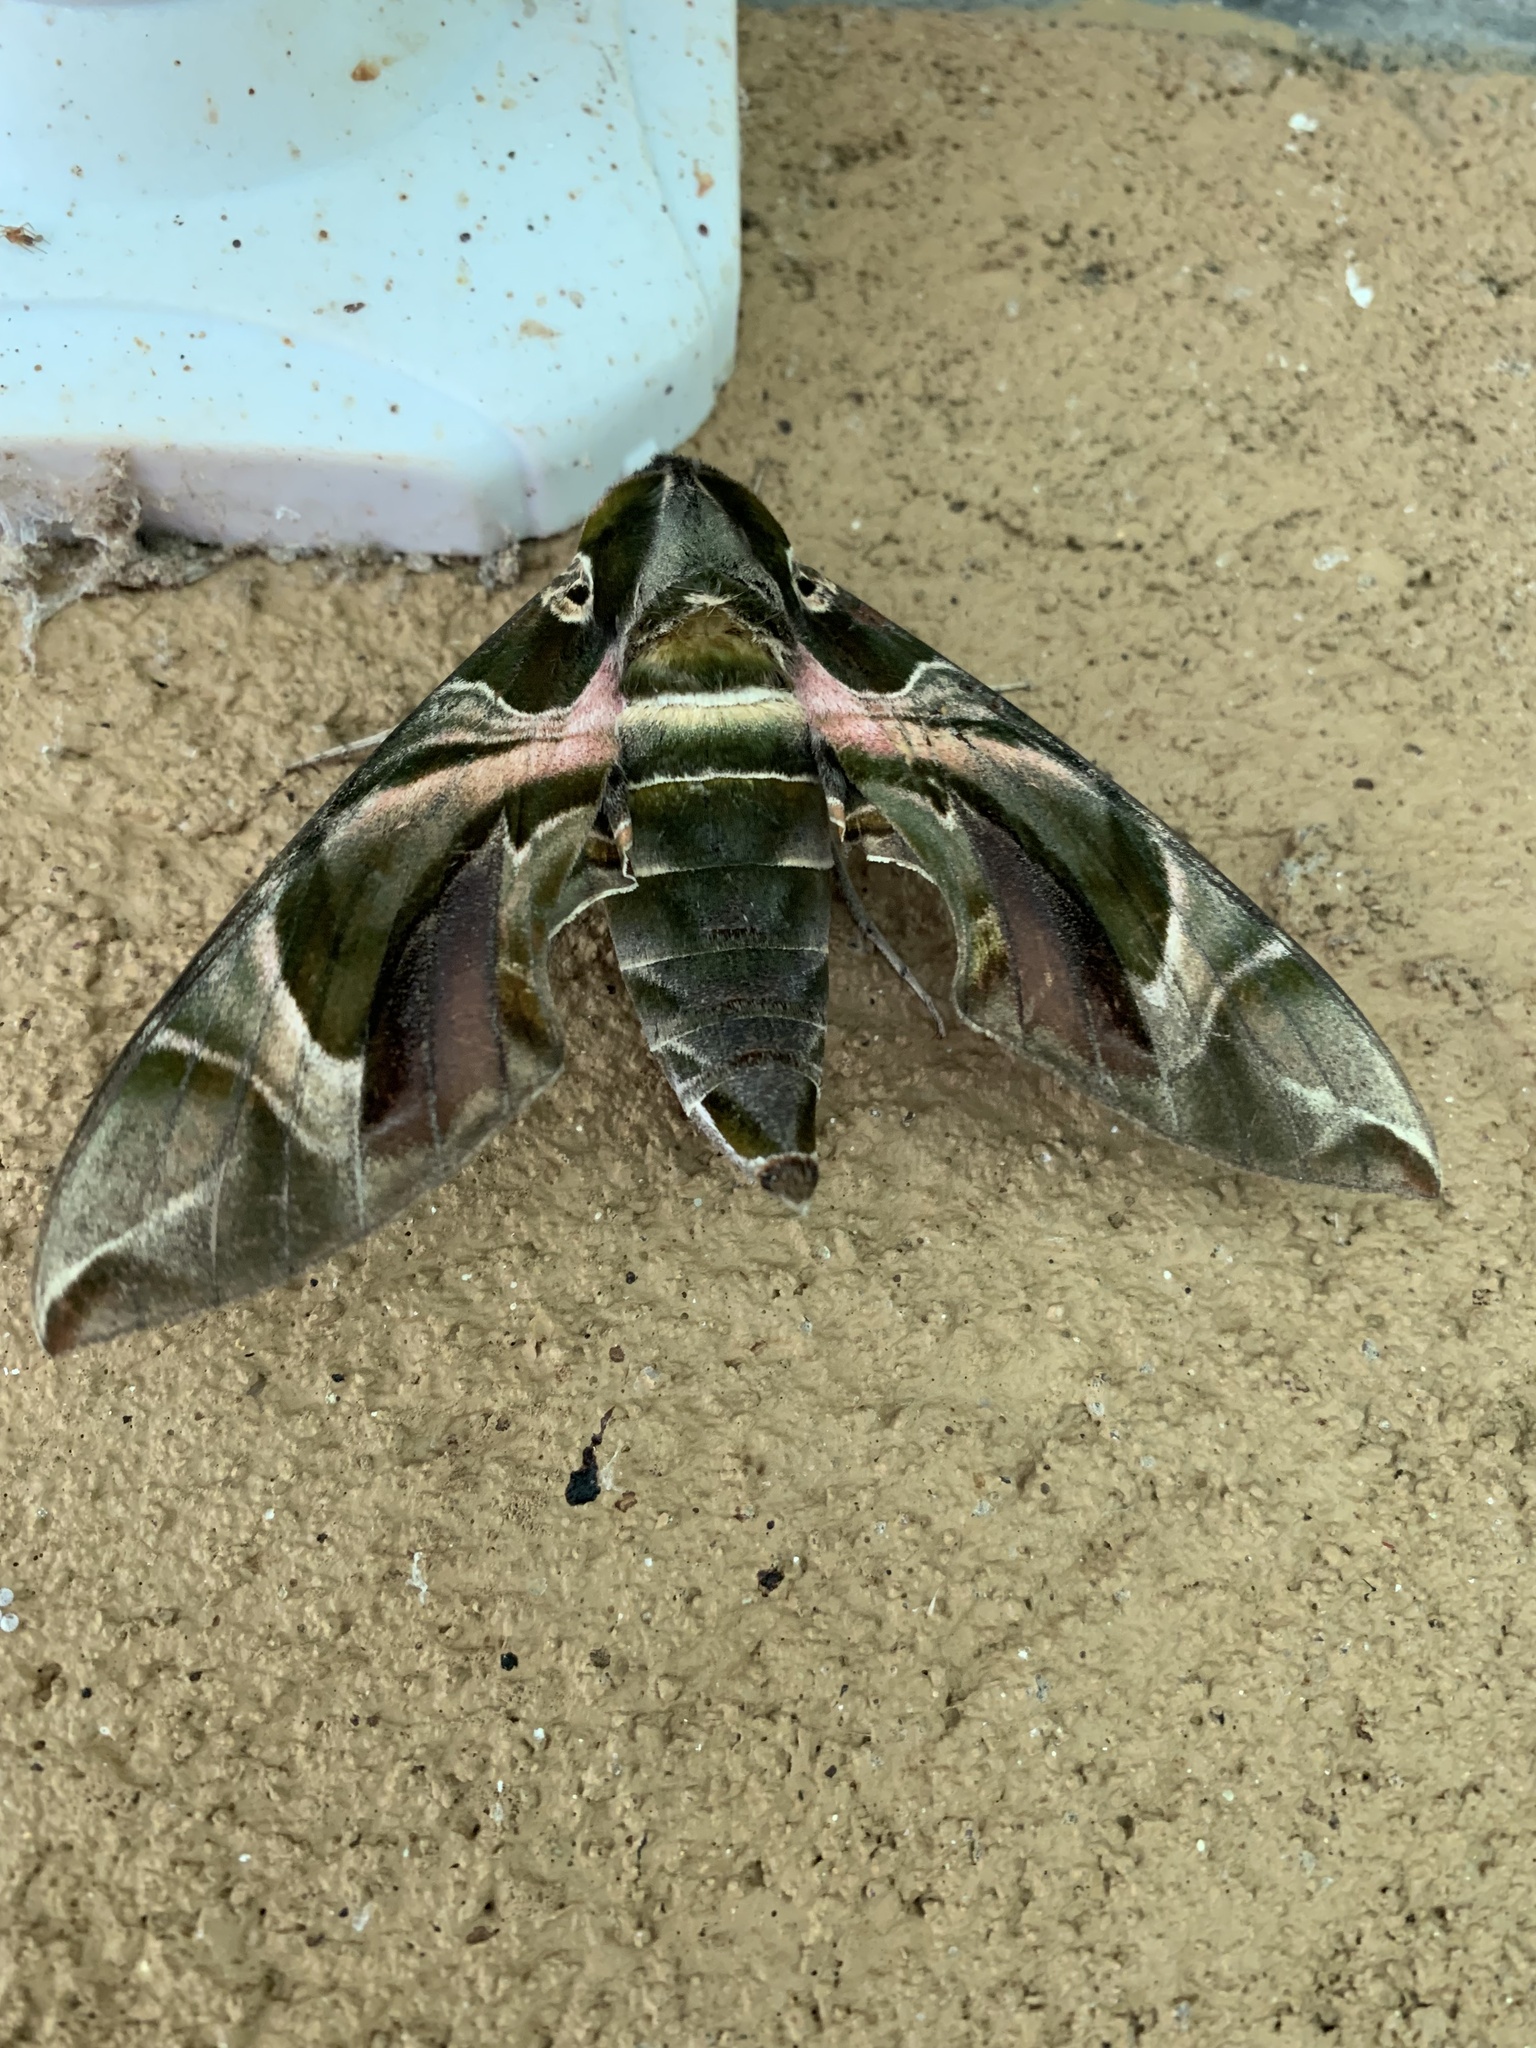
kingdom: Animalia
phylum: Arthropoda
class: Insecta
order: Lepidoptera
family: Sphingidae
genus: Daphnis
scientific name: Daphnis nerii
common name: Oleander hawk-moth
